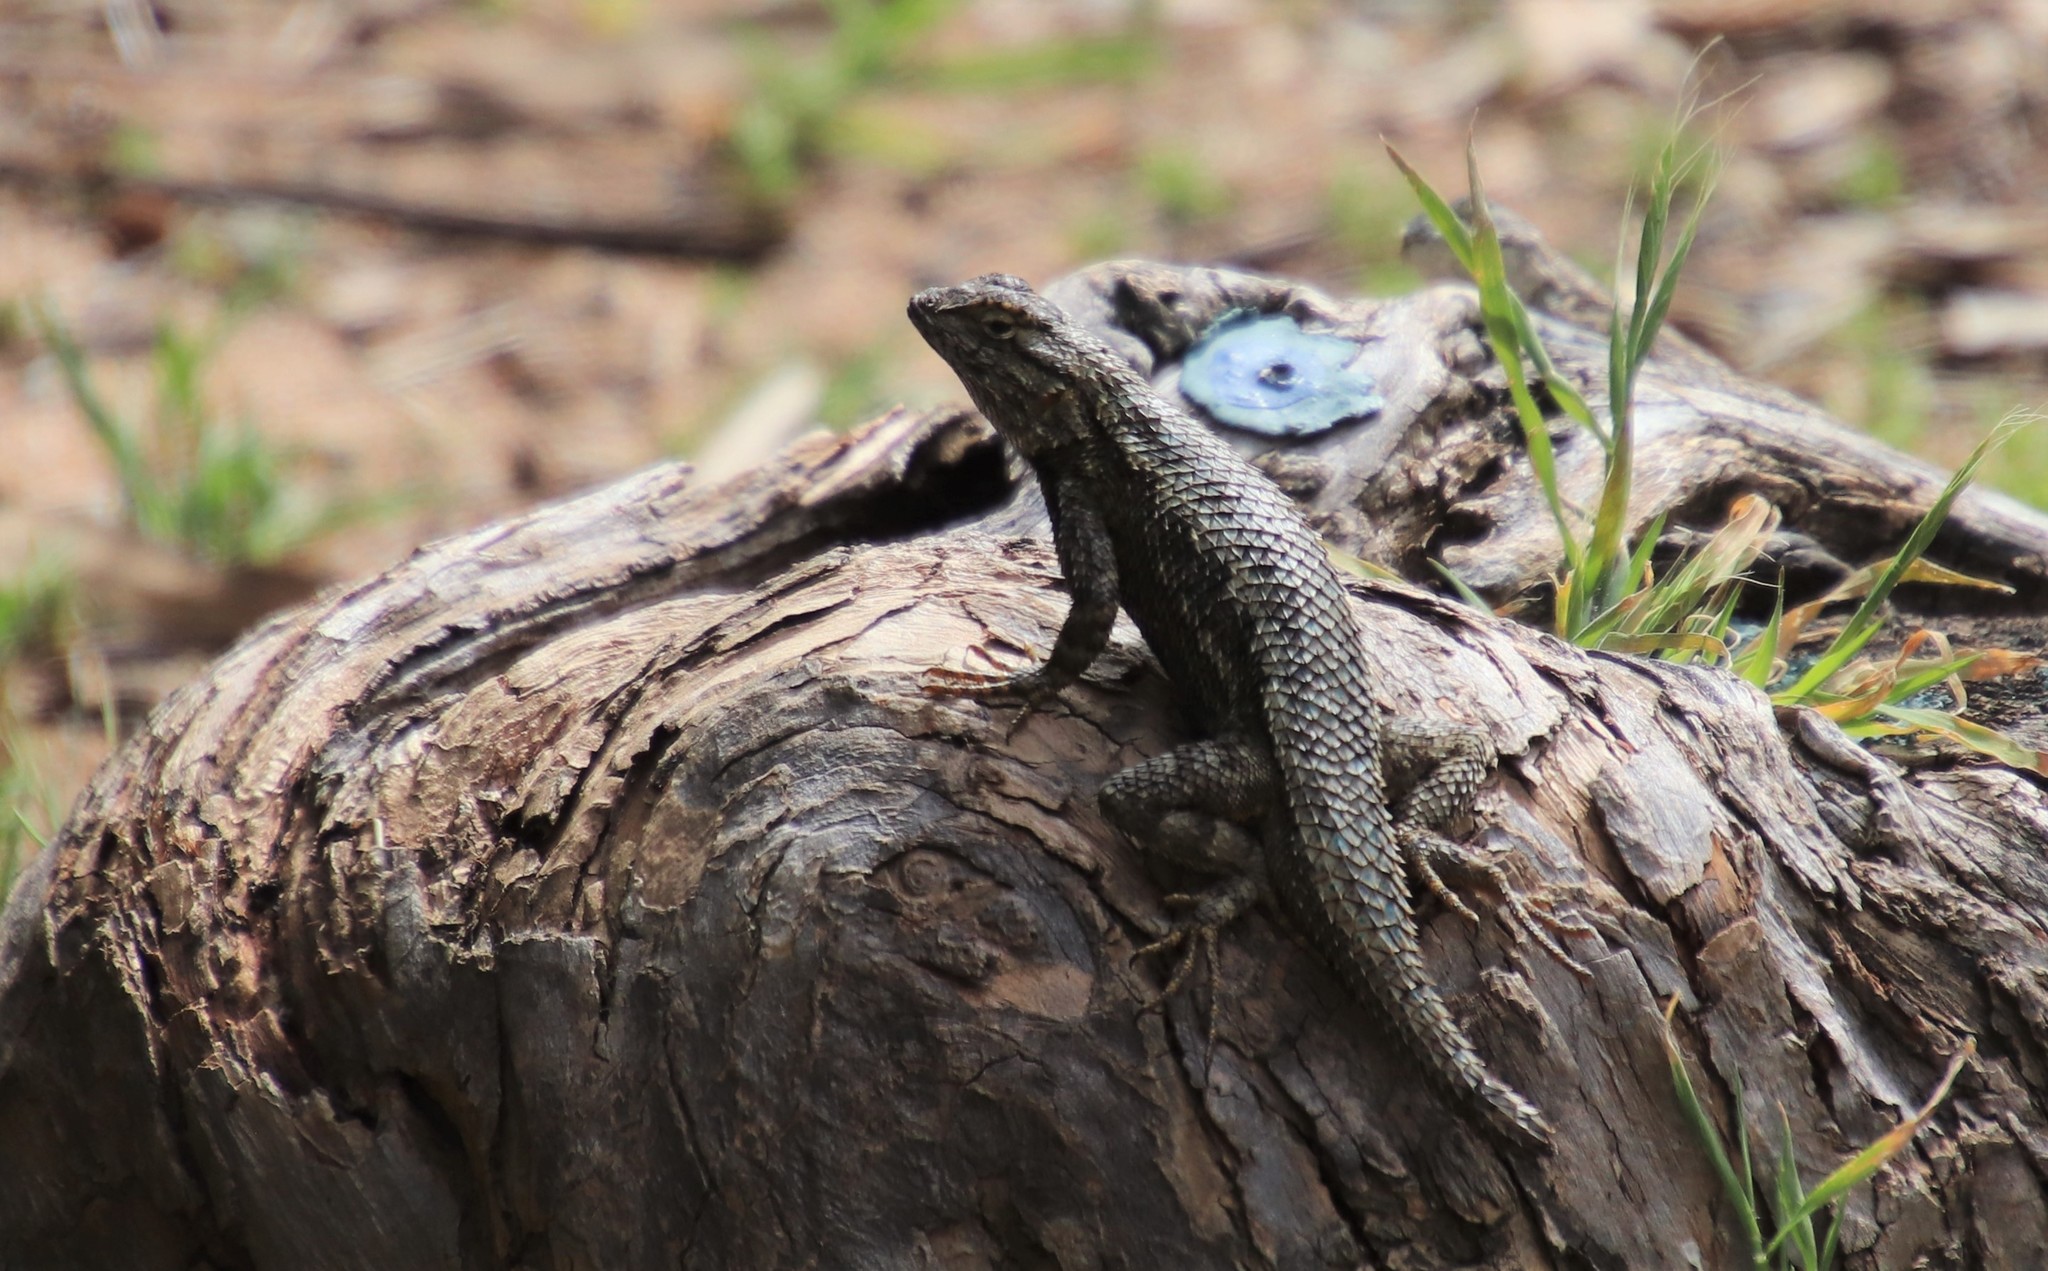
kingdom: Animalia
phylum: Chordata
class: Squamata
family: Phrynosomatidae
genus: Sceloporus
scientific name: Sceloporus occidentalis
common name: Western fence lizard
